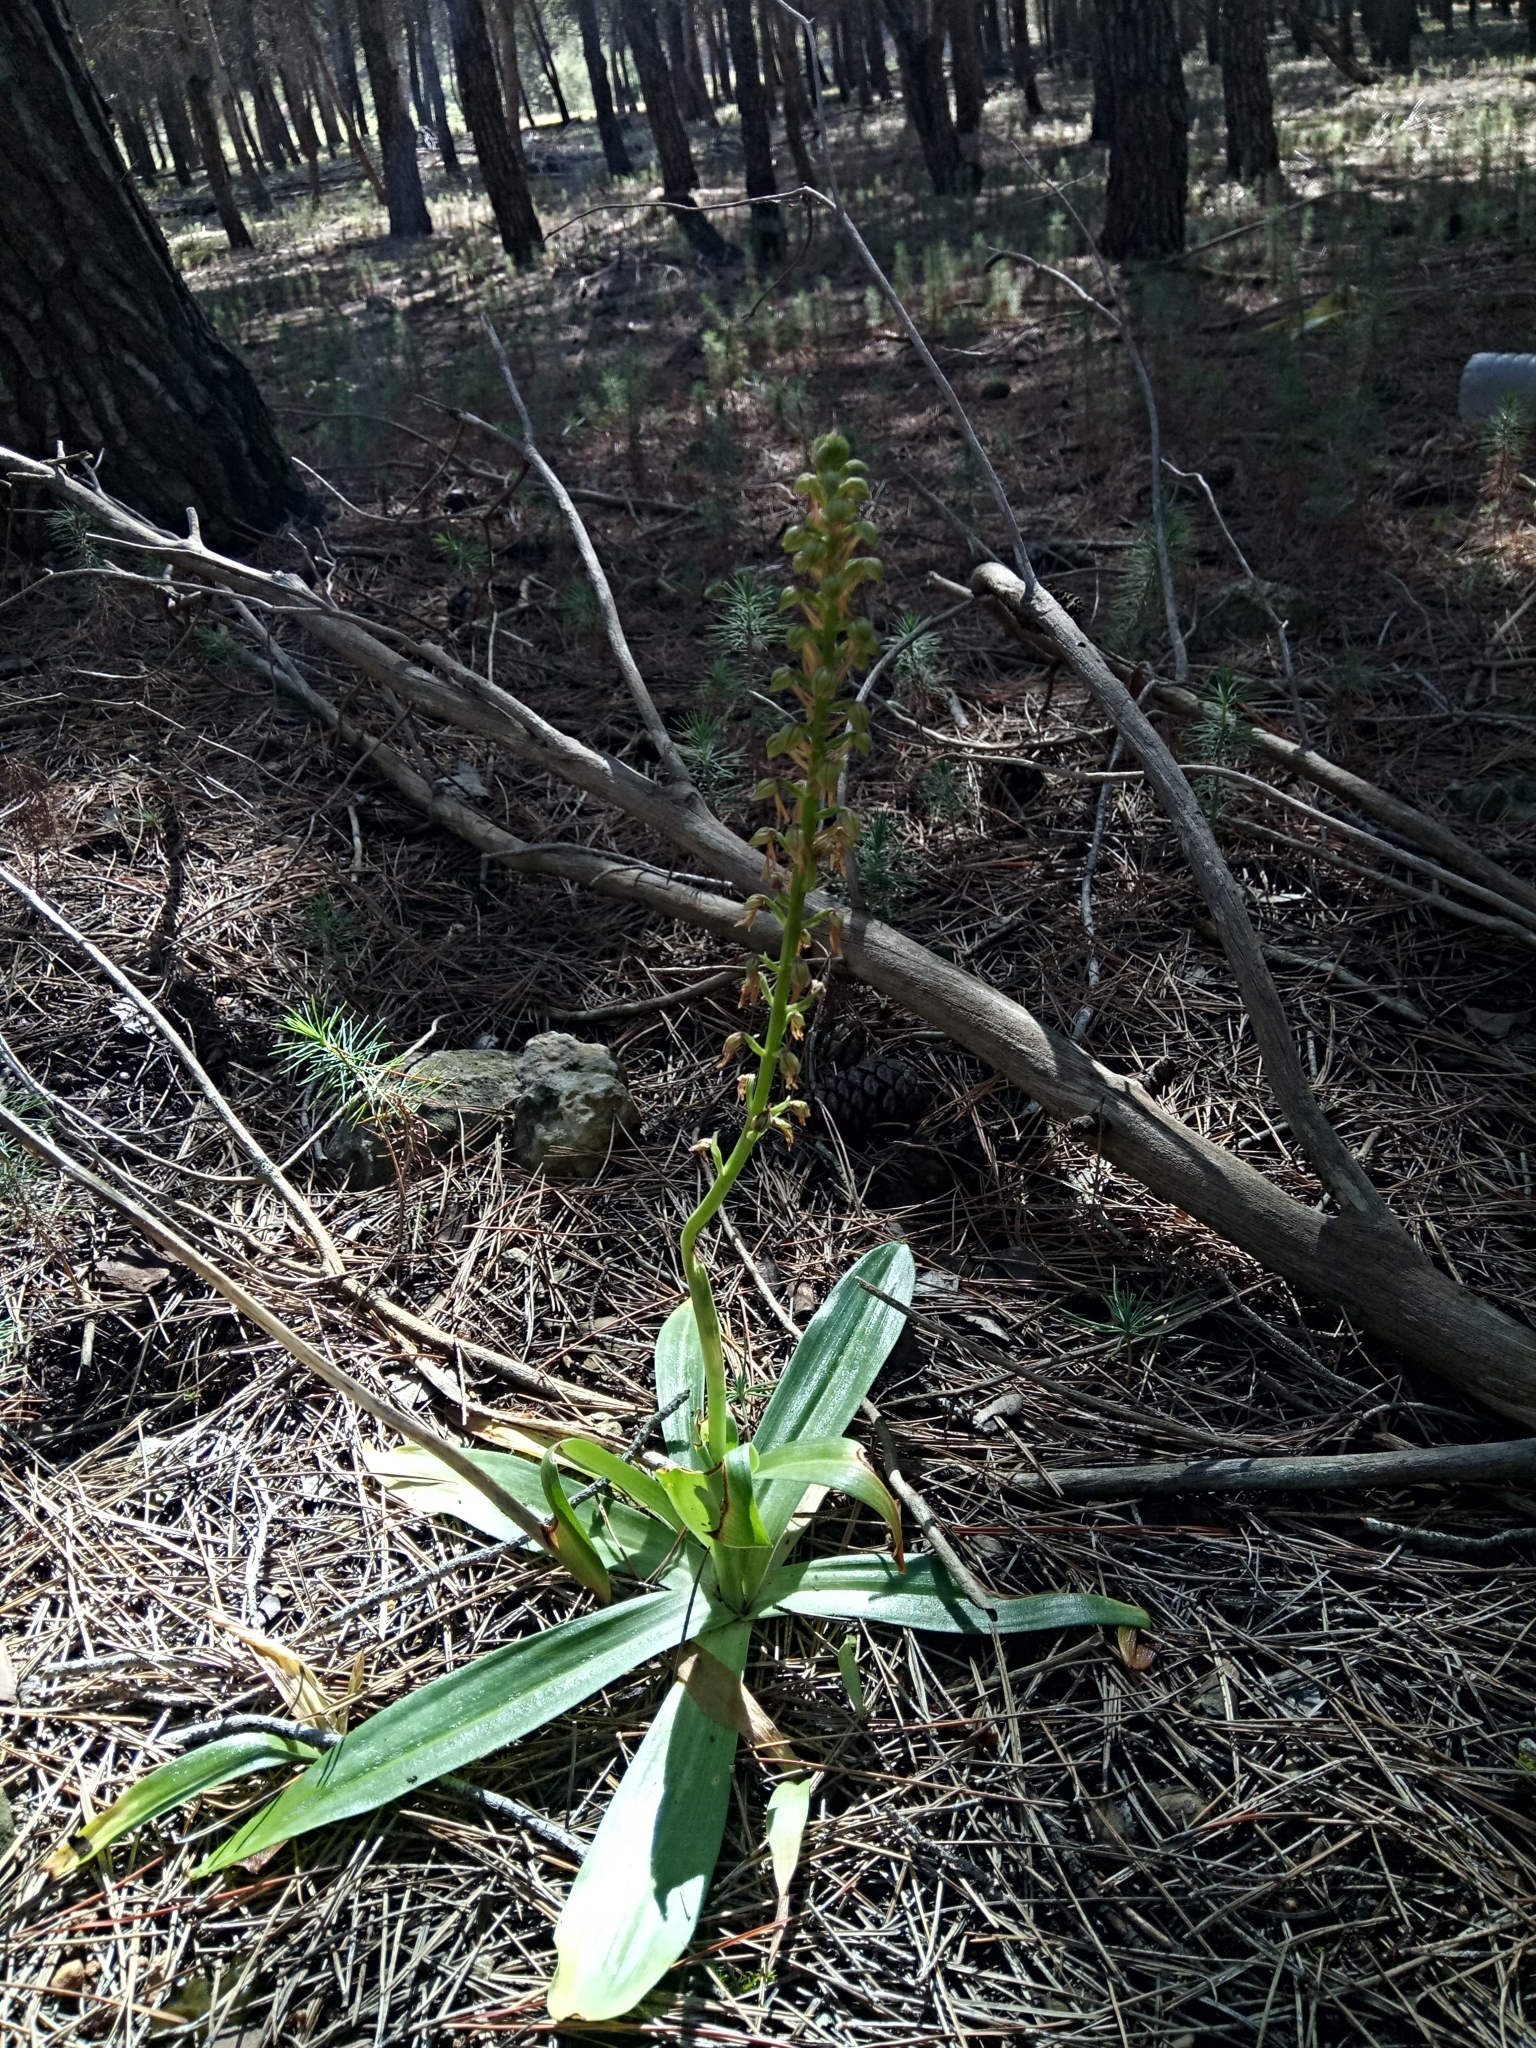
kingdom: Plantae
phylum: Tracheophyta
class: Liliopsida
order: Asparagales
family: Orchidaceae
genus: Orchis
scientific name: Orchis anthropophora
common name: Man orchid
